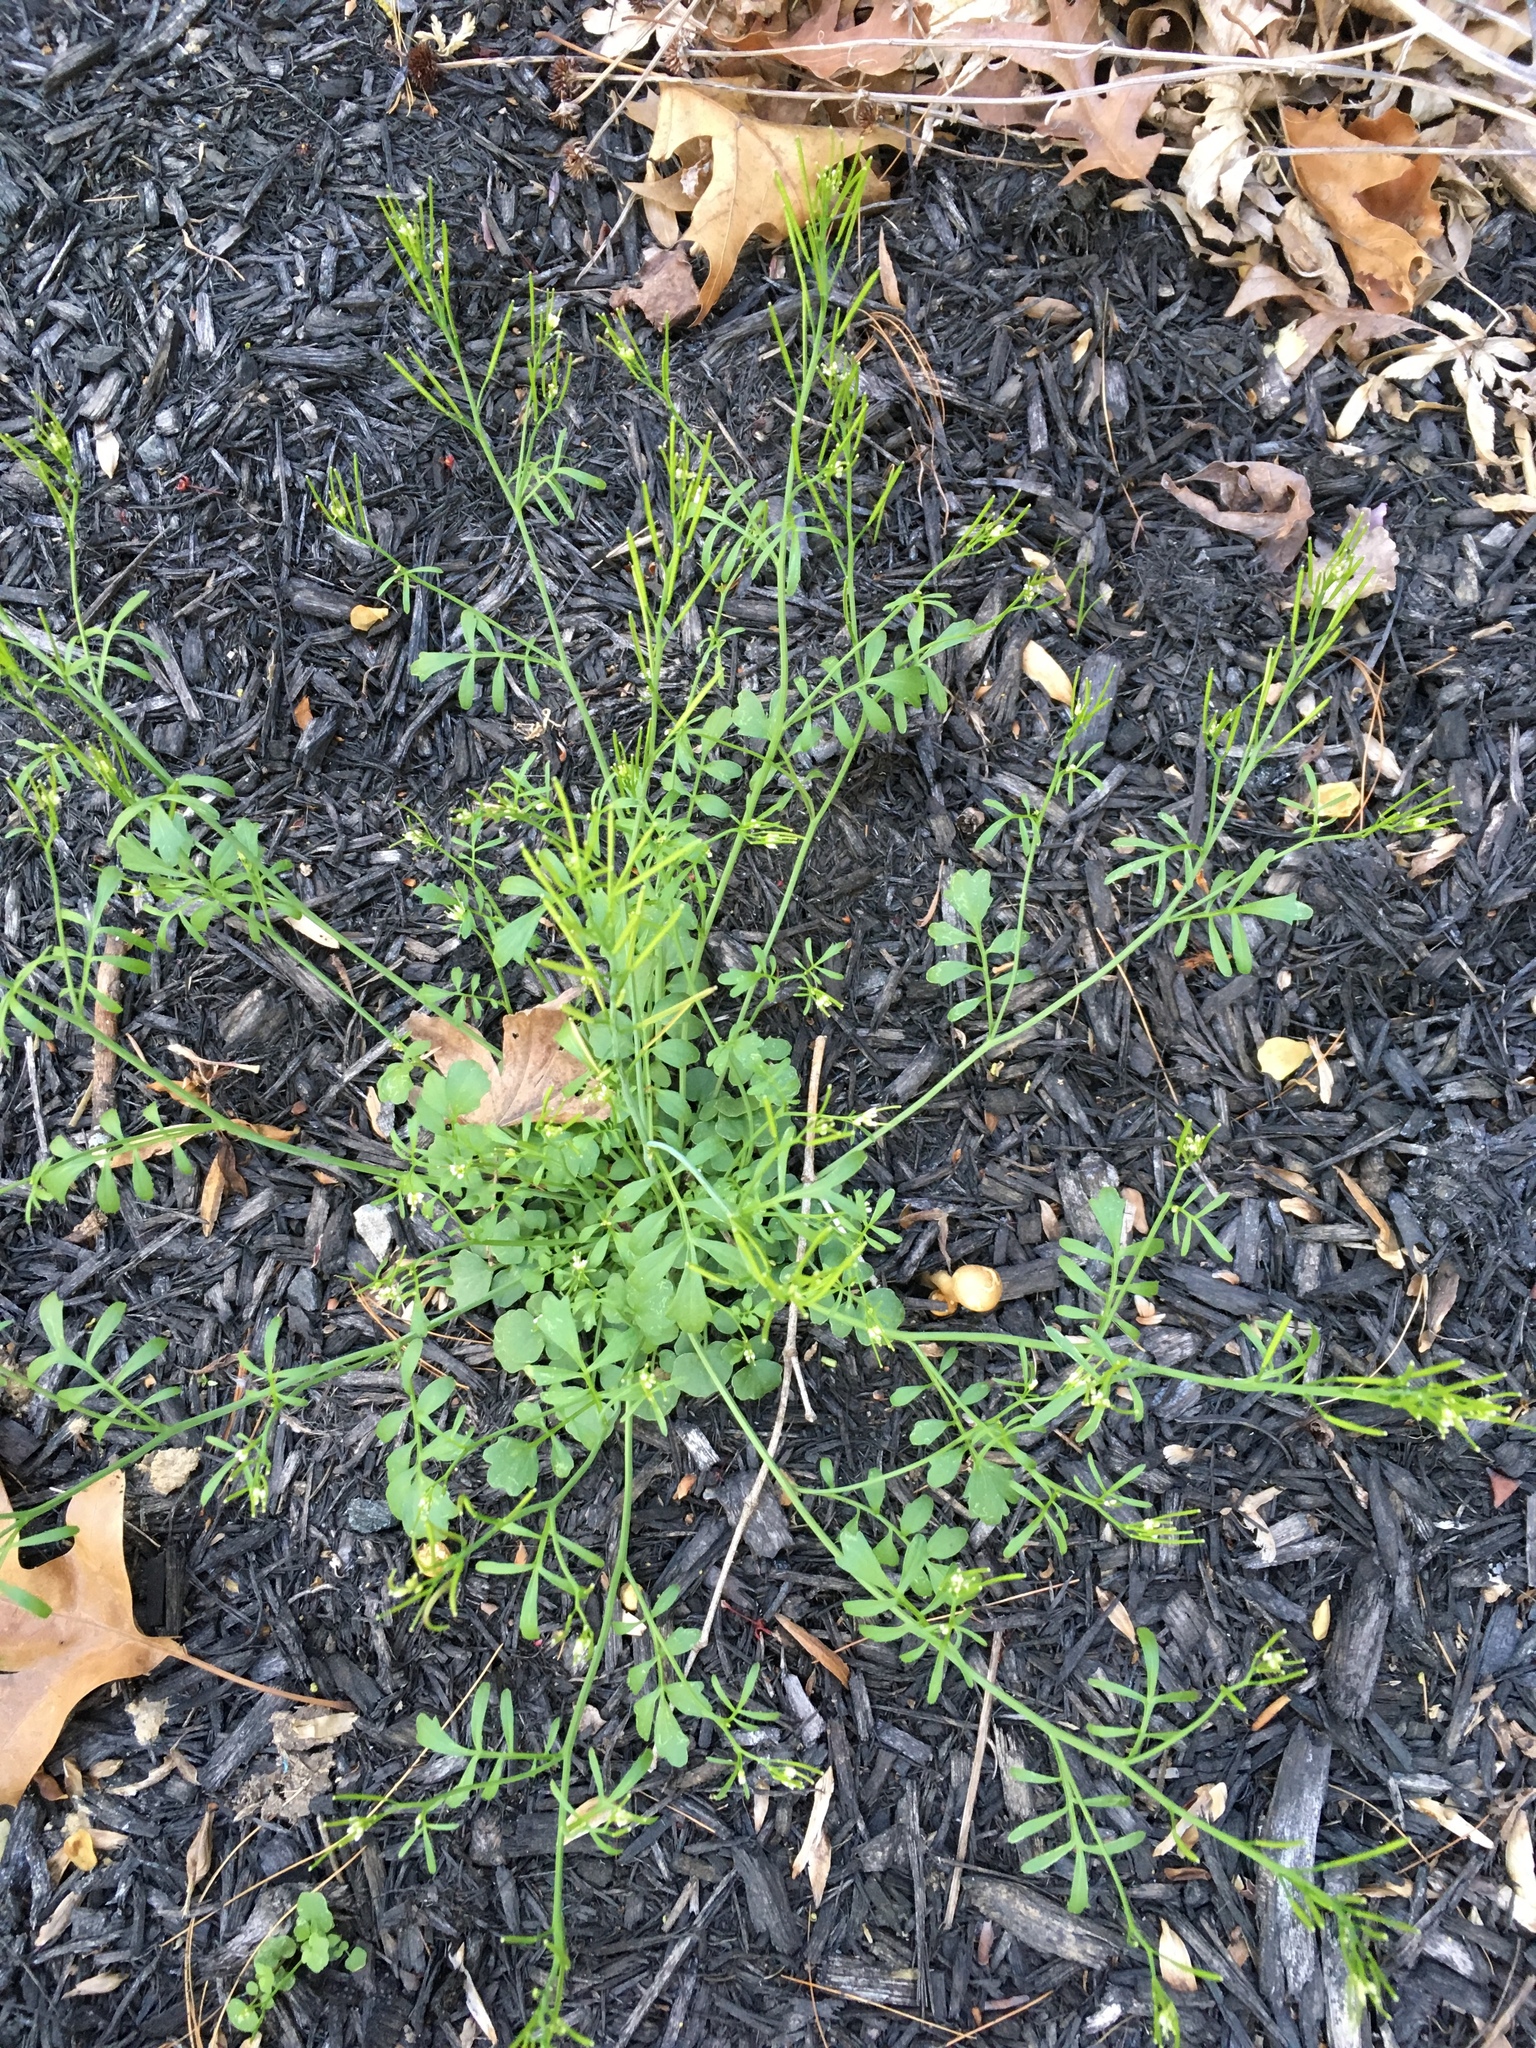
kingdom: Plantae
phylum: Tracheophyta
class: Magnoliopsida
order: Brassicales
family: Brassicaceae
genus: Cardamine
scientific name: Cardamine hirsuta
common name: Hairy bittercress
